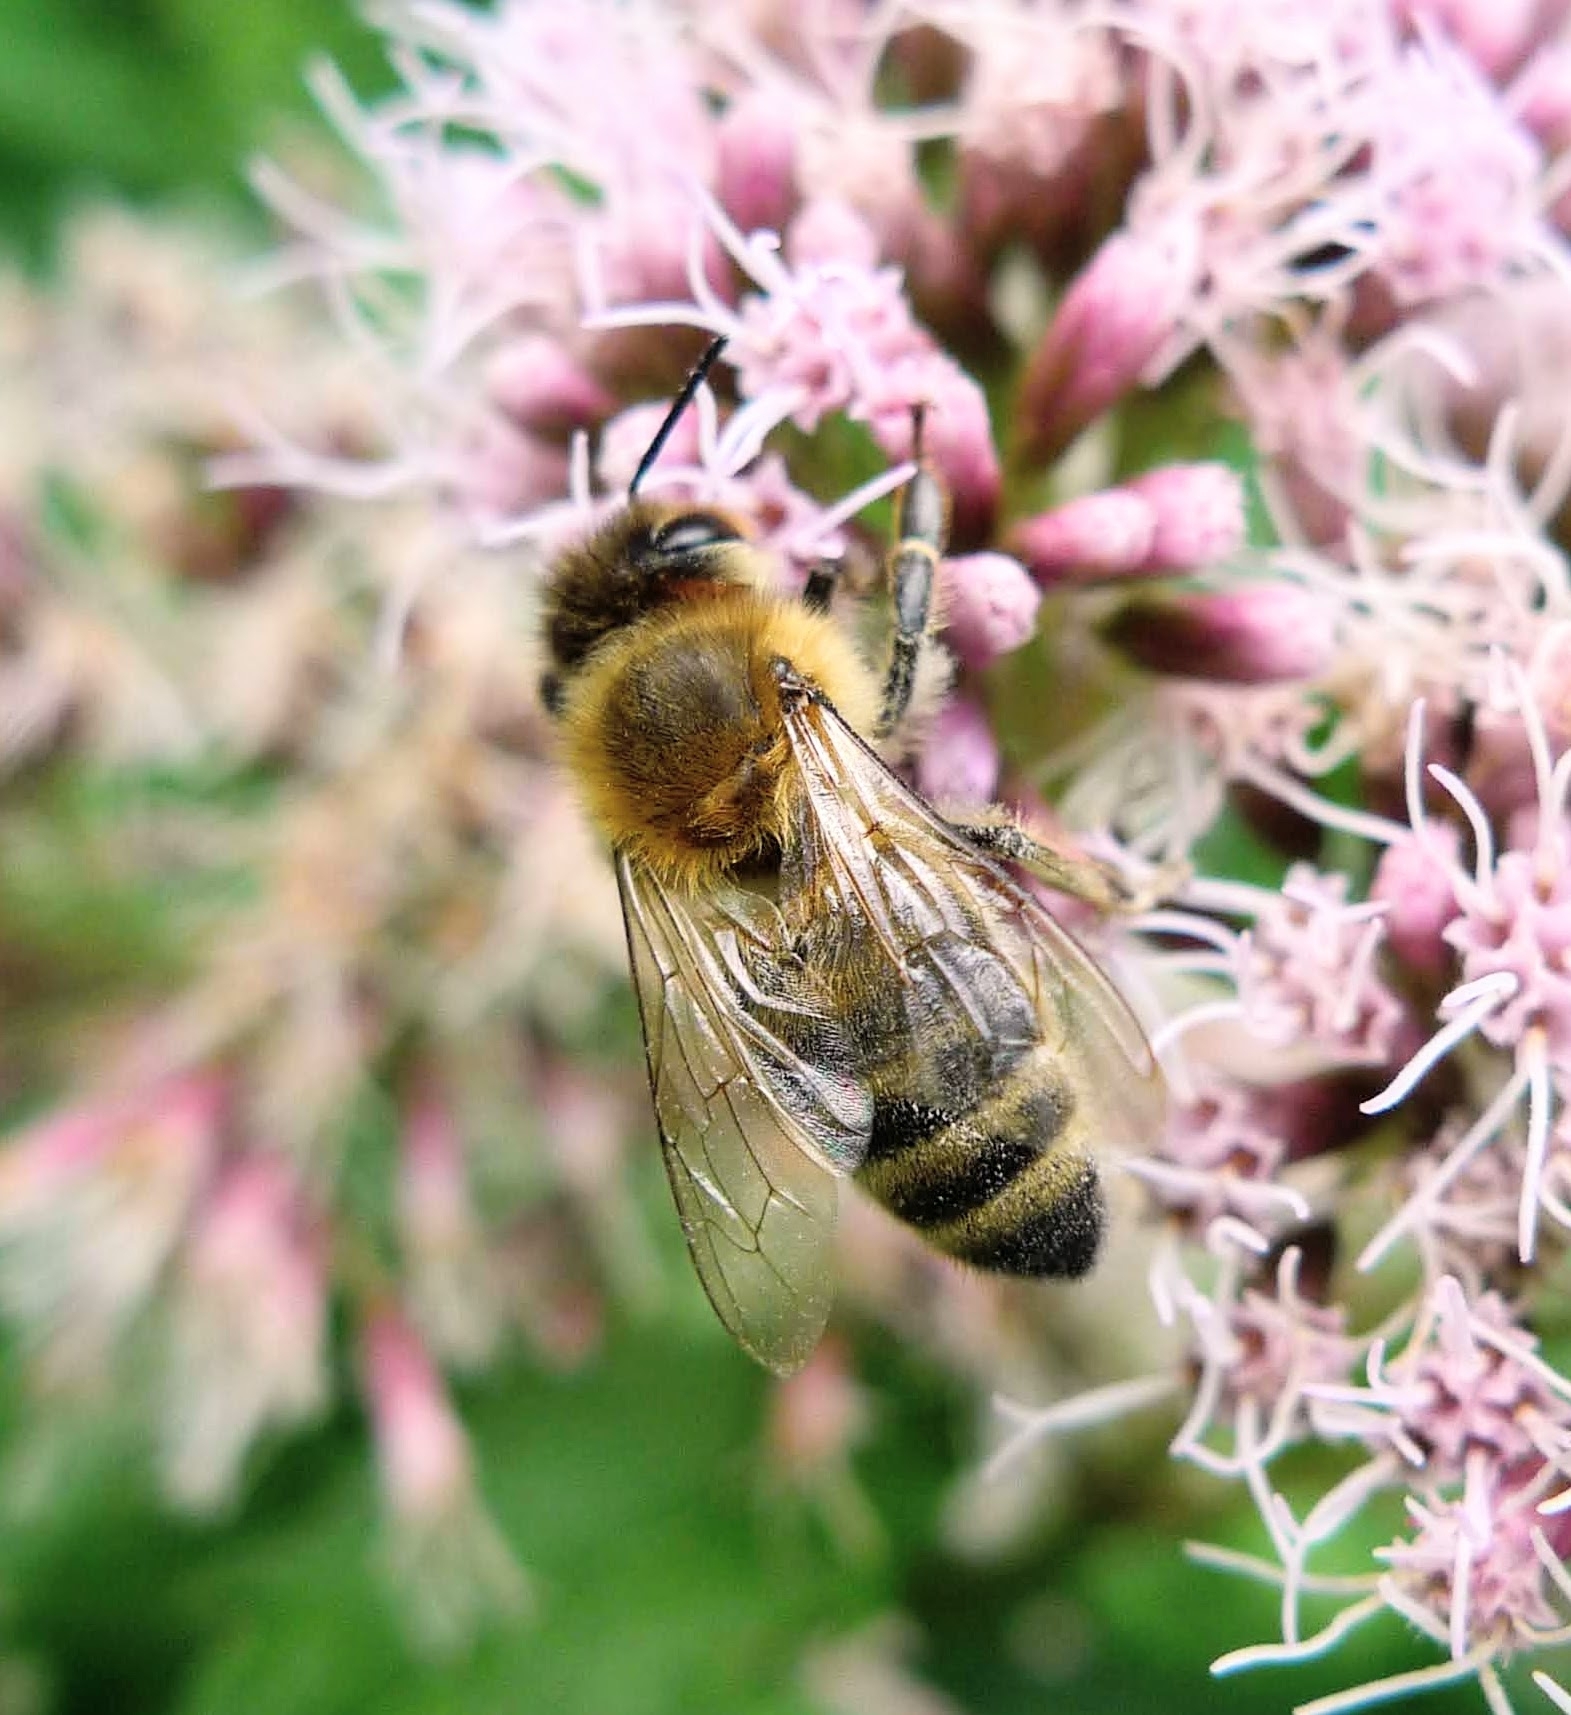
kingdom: Animalia
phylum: Arthropoda
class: Insecta
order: Hymenoptera
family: Apidae
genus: Apis
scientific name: Apis mellifera
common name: Honey bee
